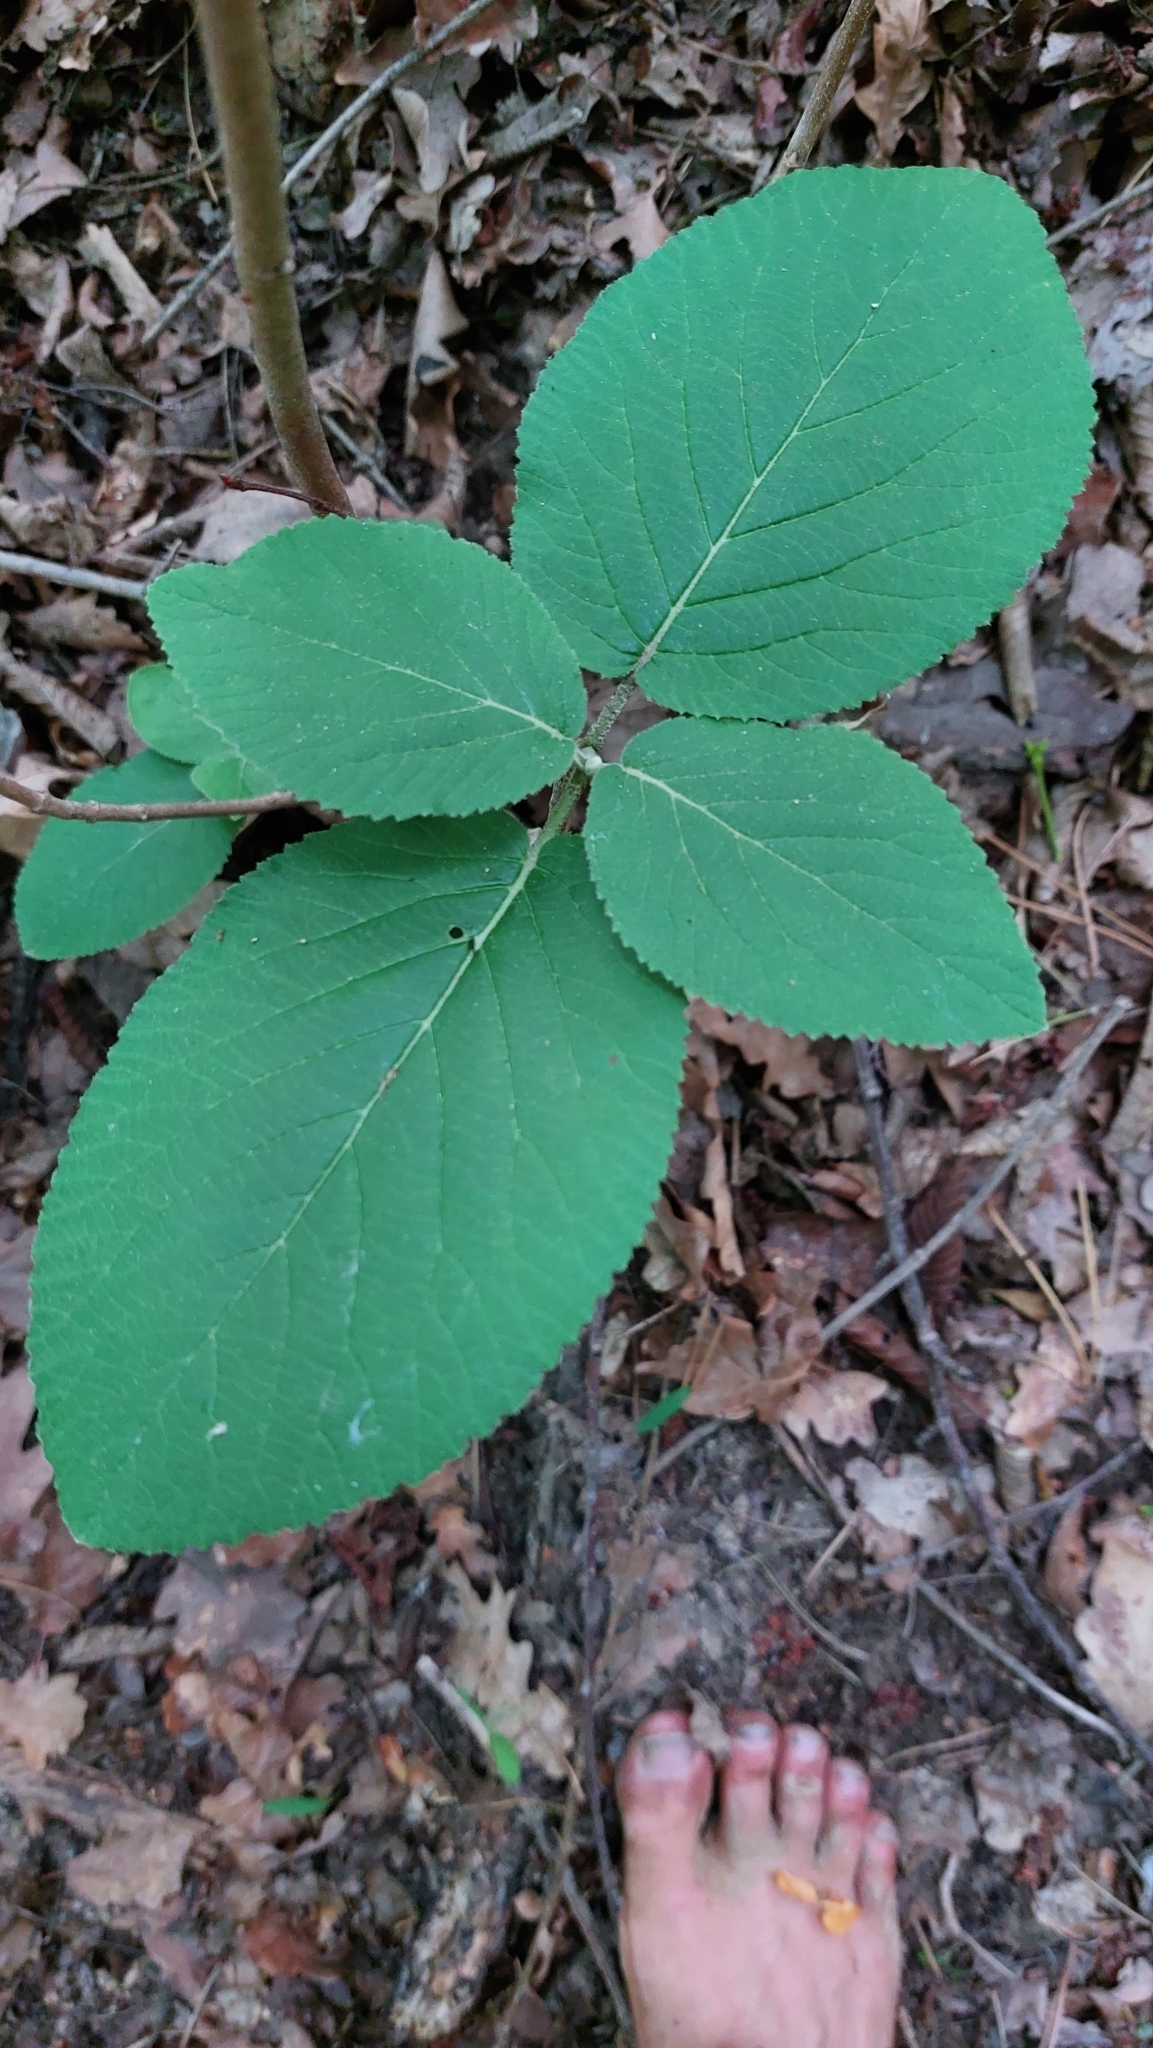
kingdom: Plantae
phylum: Tracheophyta
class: Magnoliopsida
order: Dipsacales
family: Viburnaceae
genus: Viburnum
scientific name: Viburnum lantana
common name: Wayfaring tree
